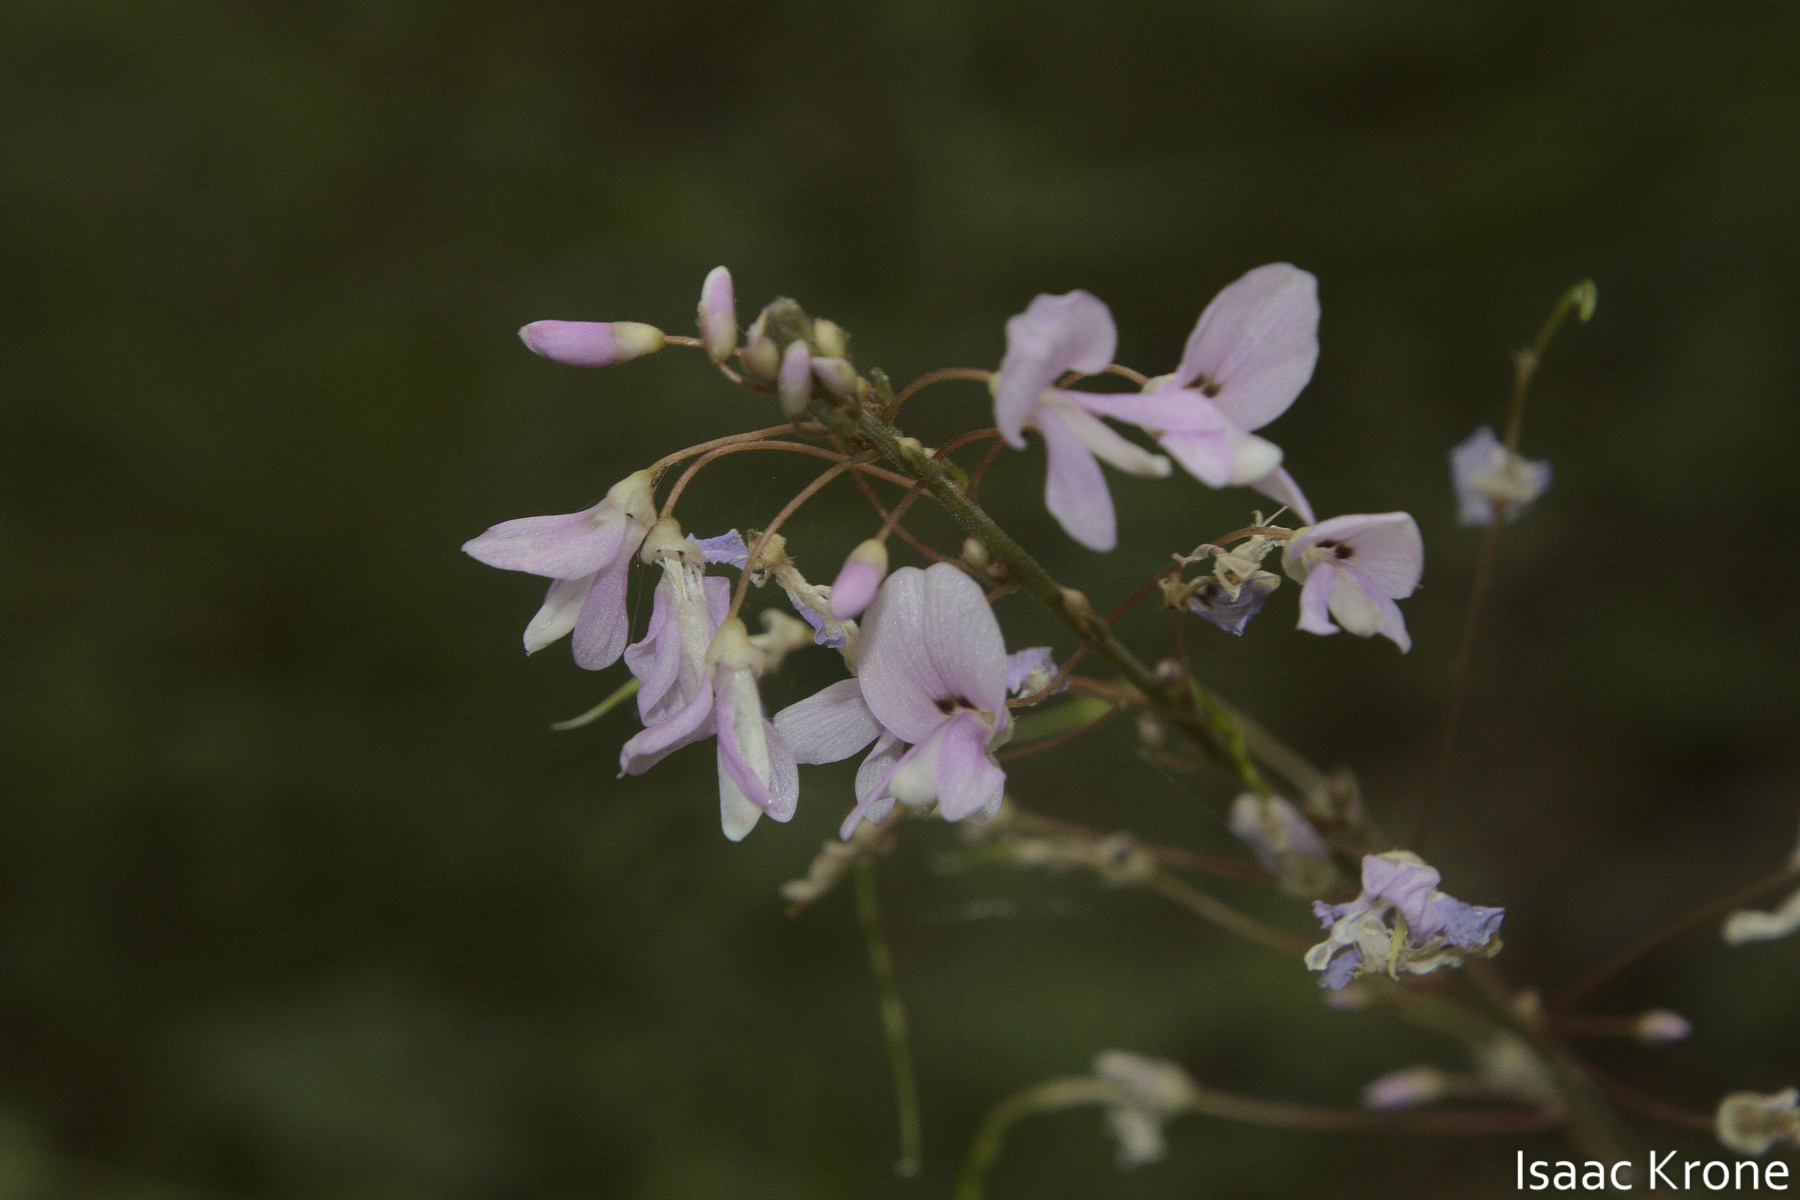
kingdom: Plantae
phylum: Tracheophyta
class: Magnoliopsida
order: Fabales
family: Fabaceae
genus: Hylodesmum
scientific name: Hylodesmum nudiflorum
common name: Bare-stemmed tick-trefoil
